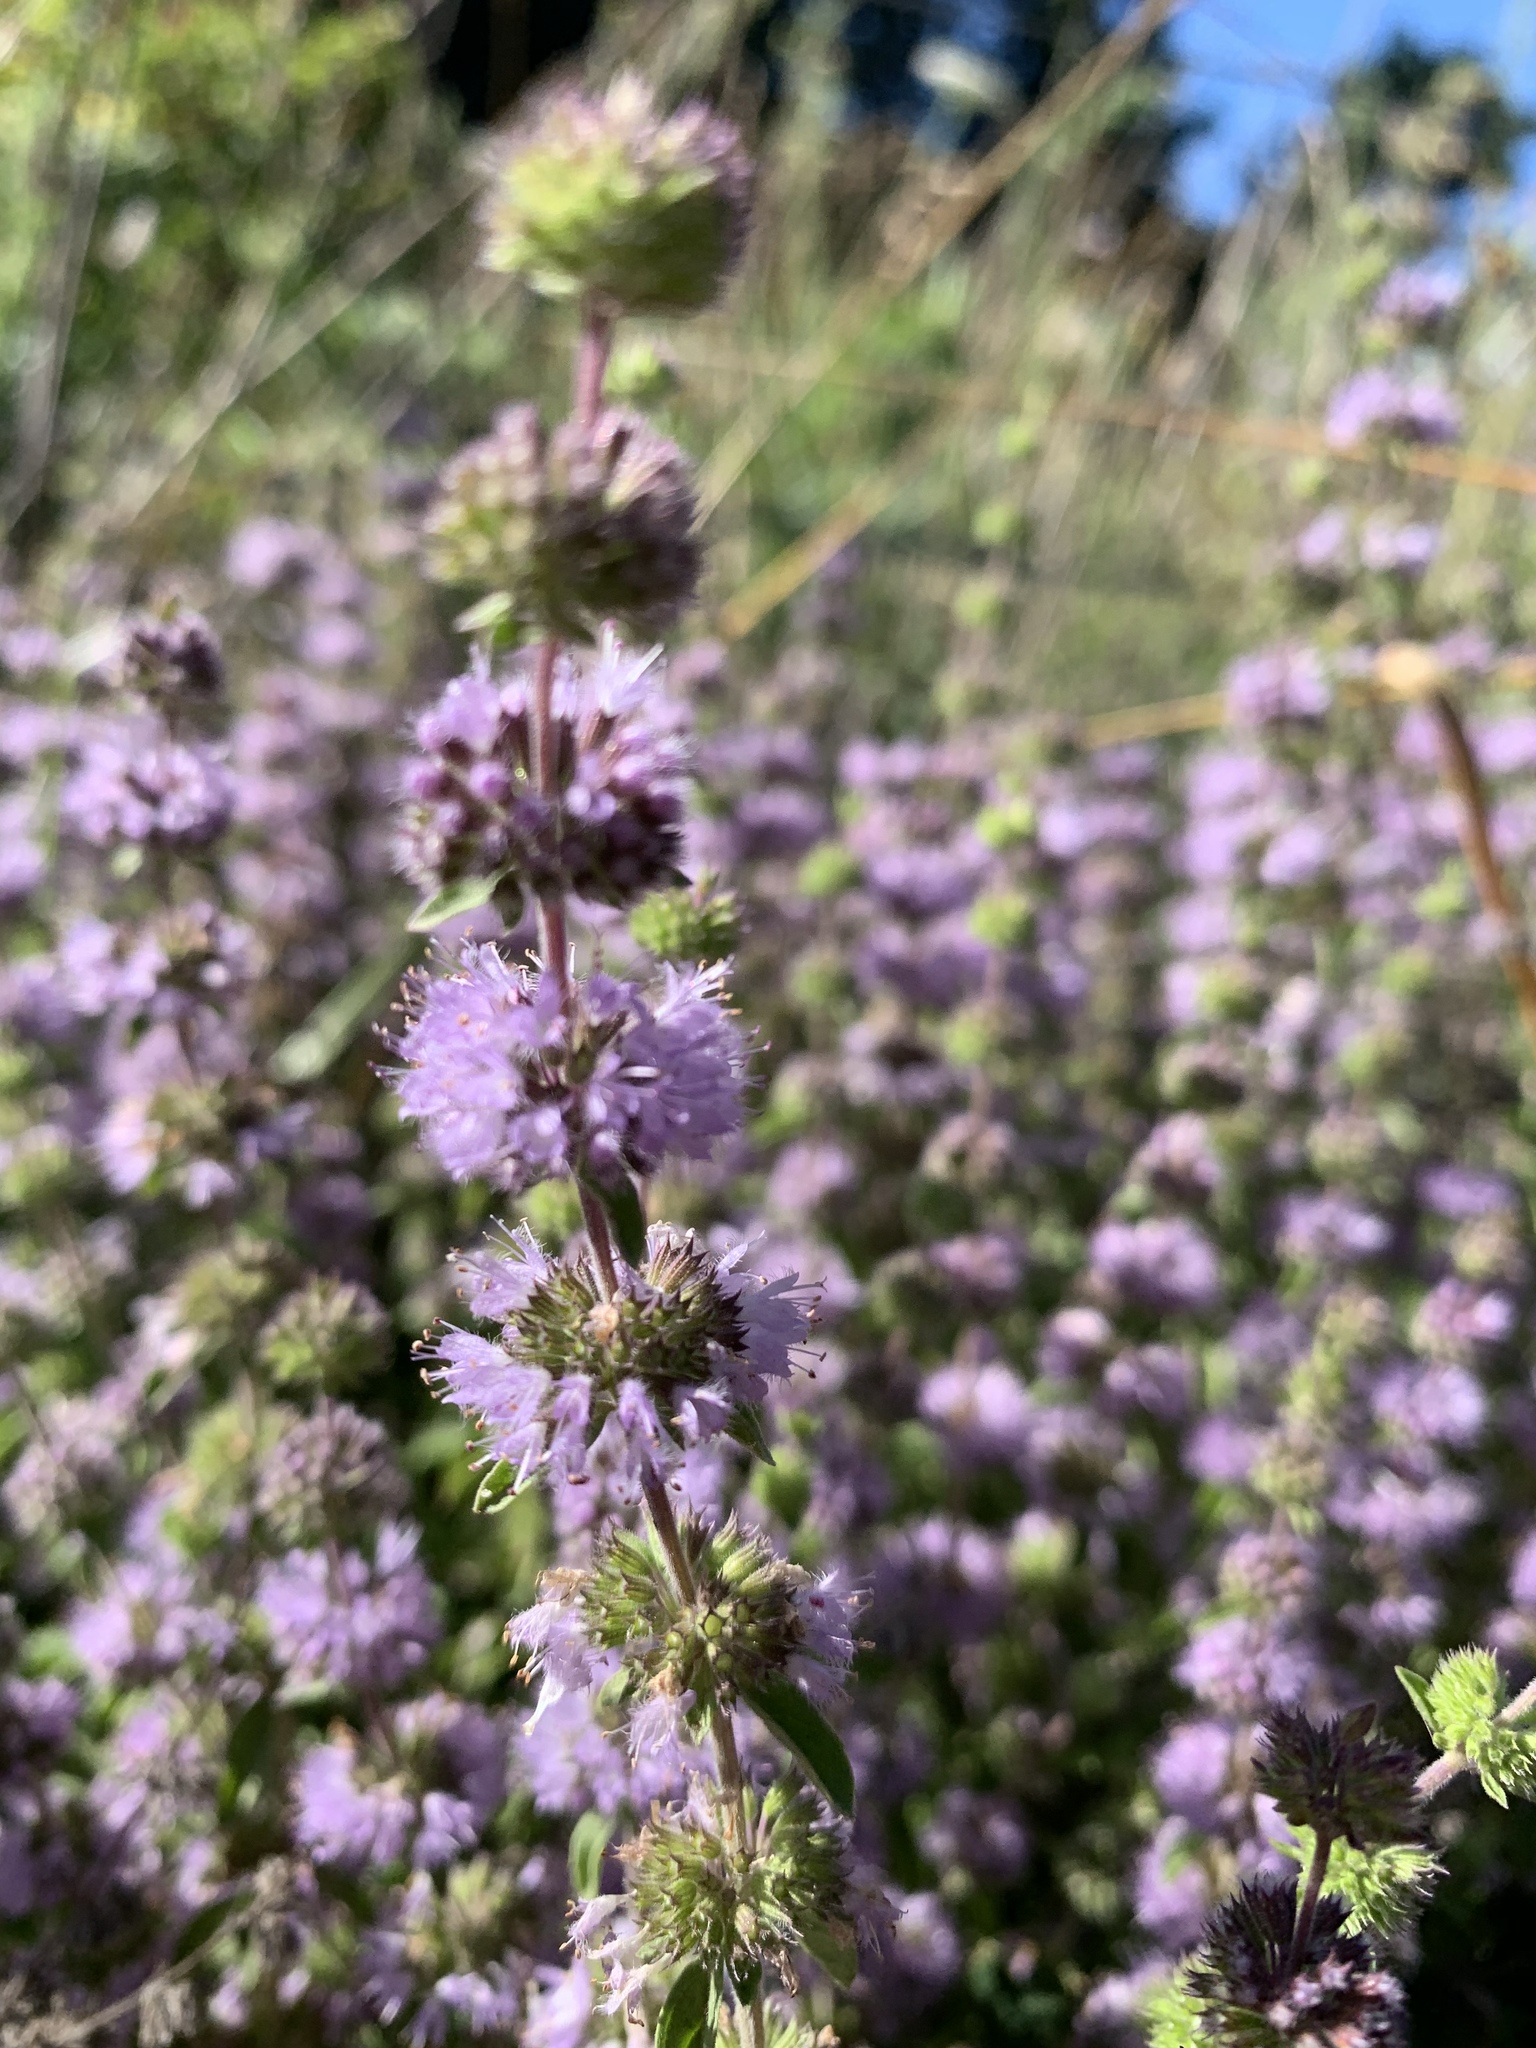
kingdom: Plantae
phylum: Tracheophyta
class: Magnoliopsida
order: Lamiales
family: Lamiaceae
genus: Mentha
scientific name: Mentha pulegium
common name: Pennyroyal
